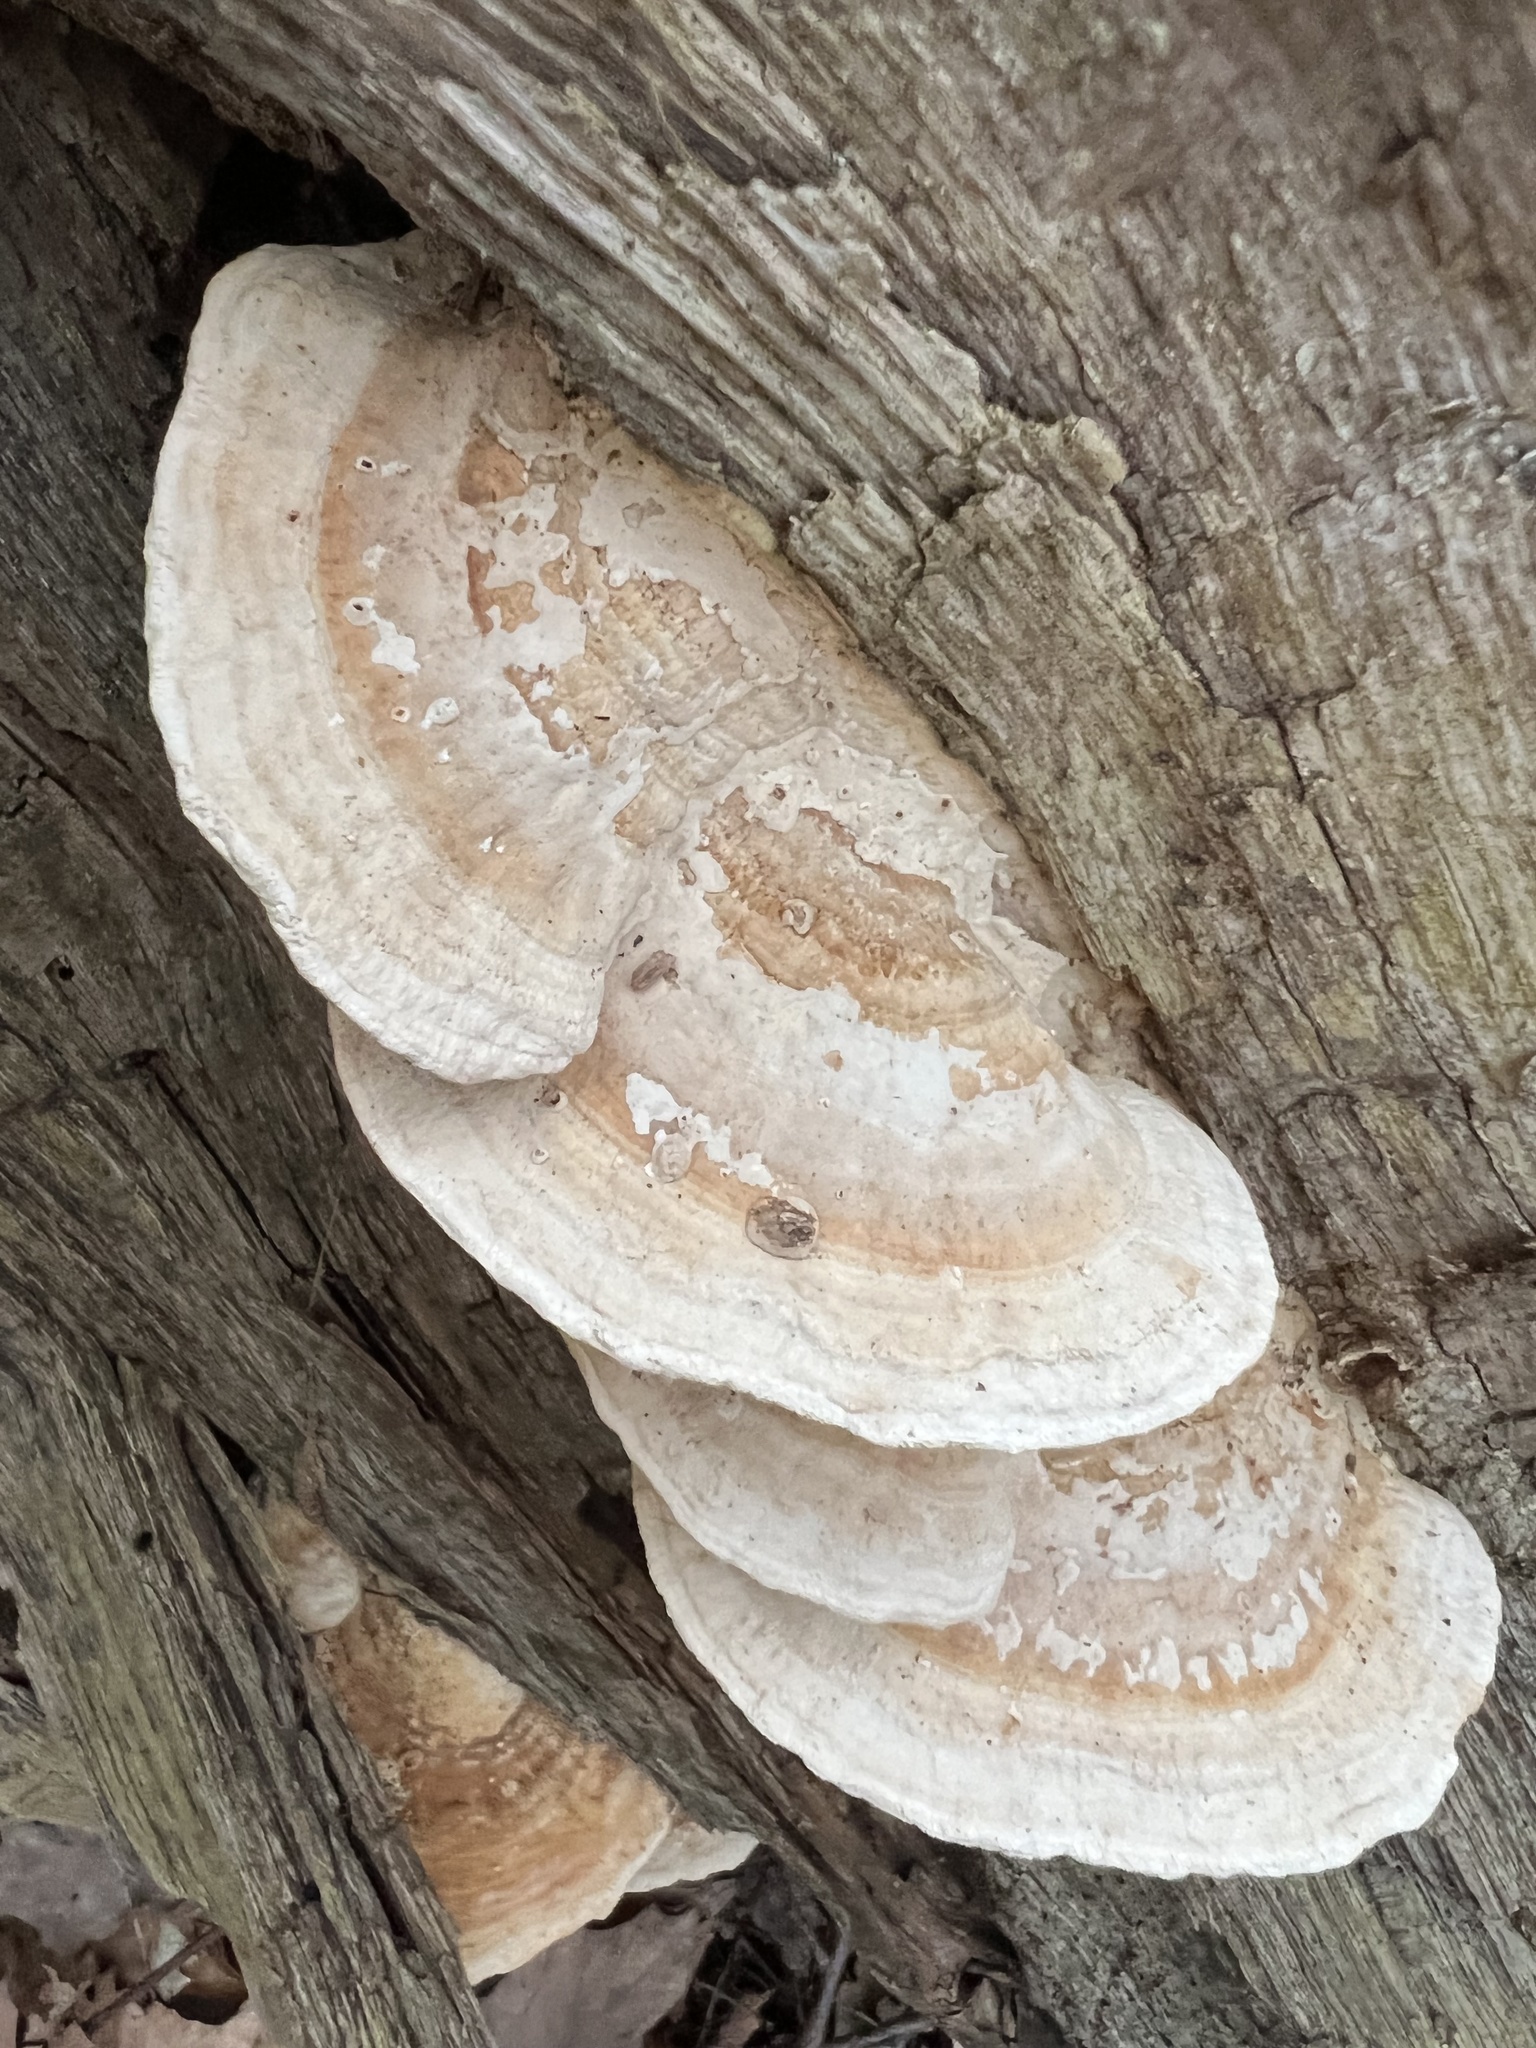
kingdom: Fungi
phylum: Basidiomycota
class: Agaricomycetes
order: Polyporales
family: Fomitopsidaceae
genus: Fomitopsis
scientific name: Fomitopsis
